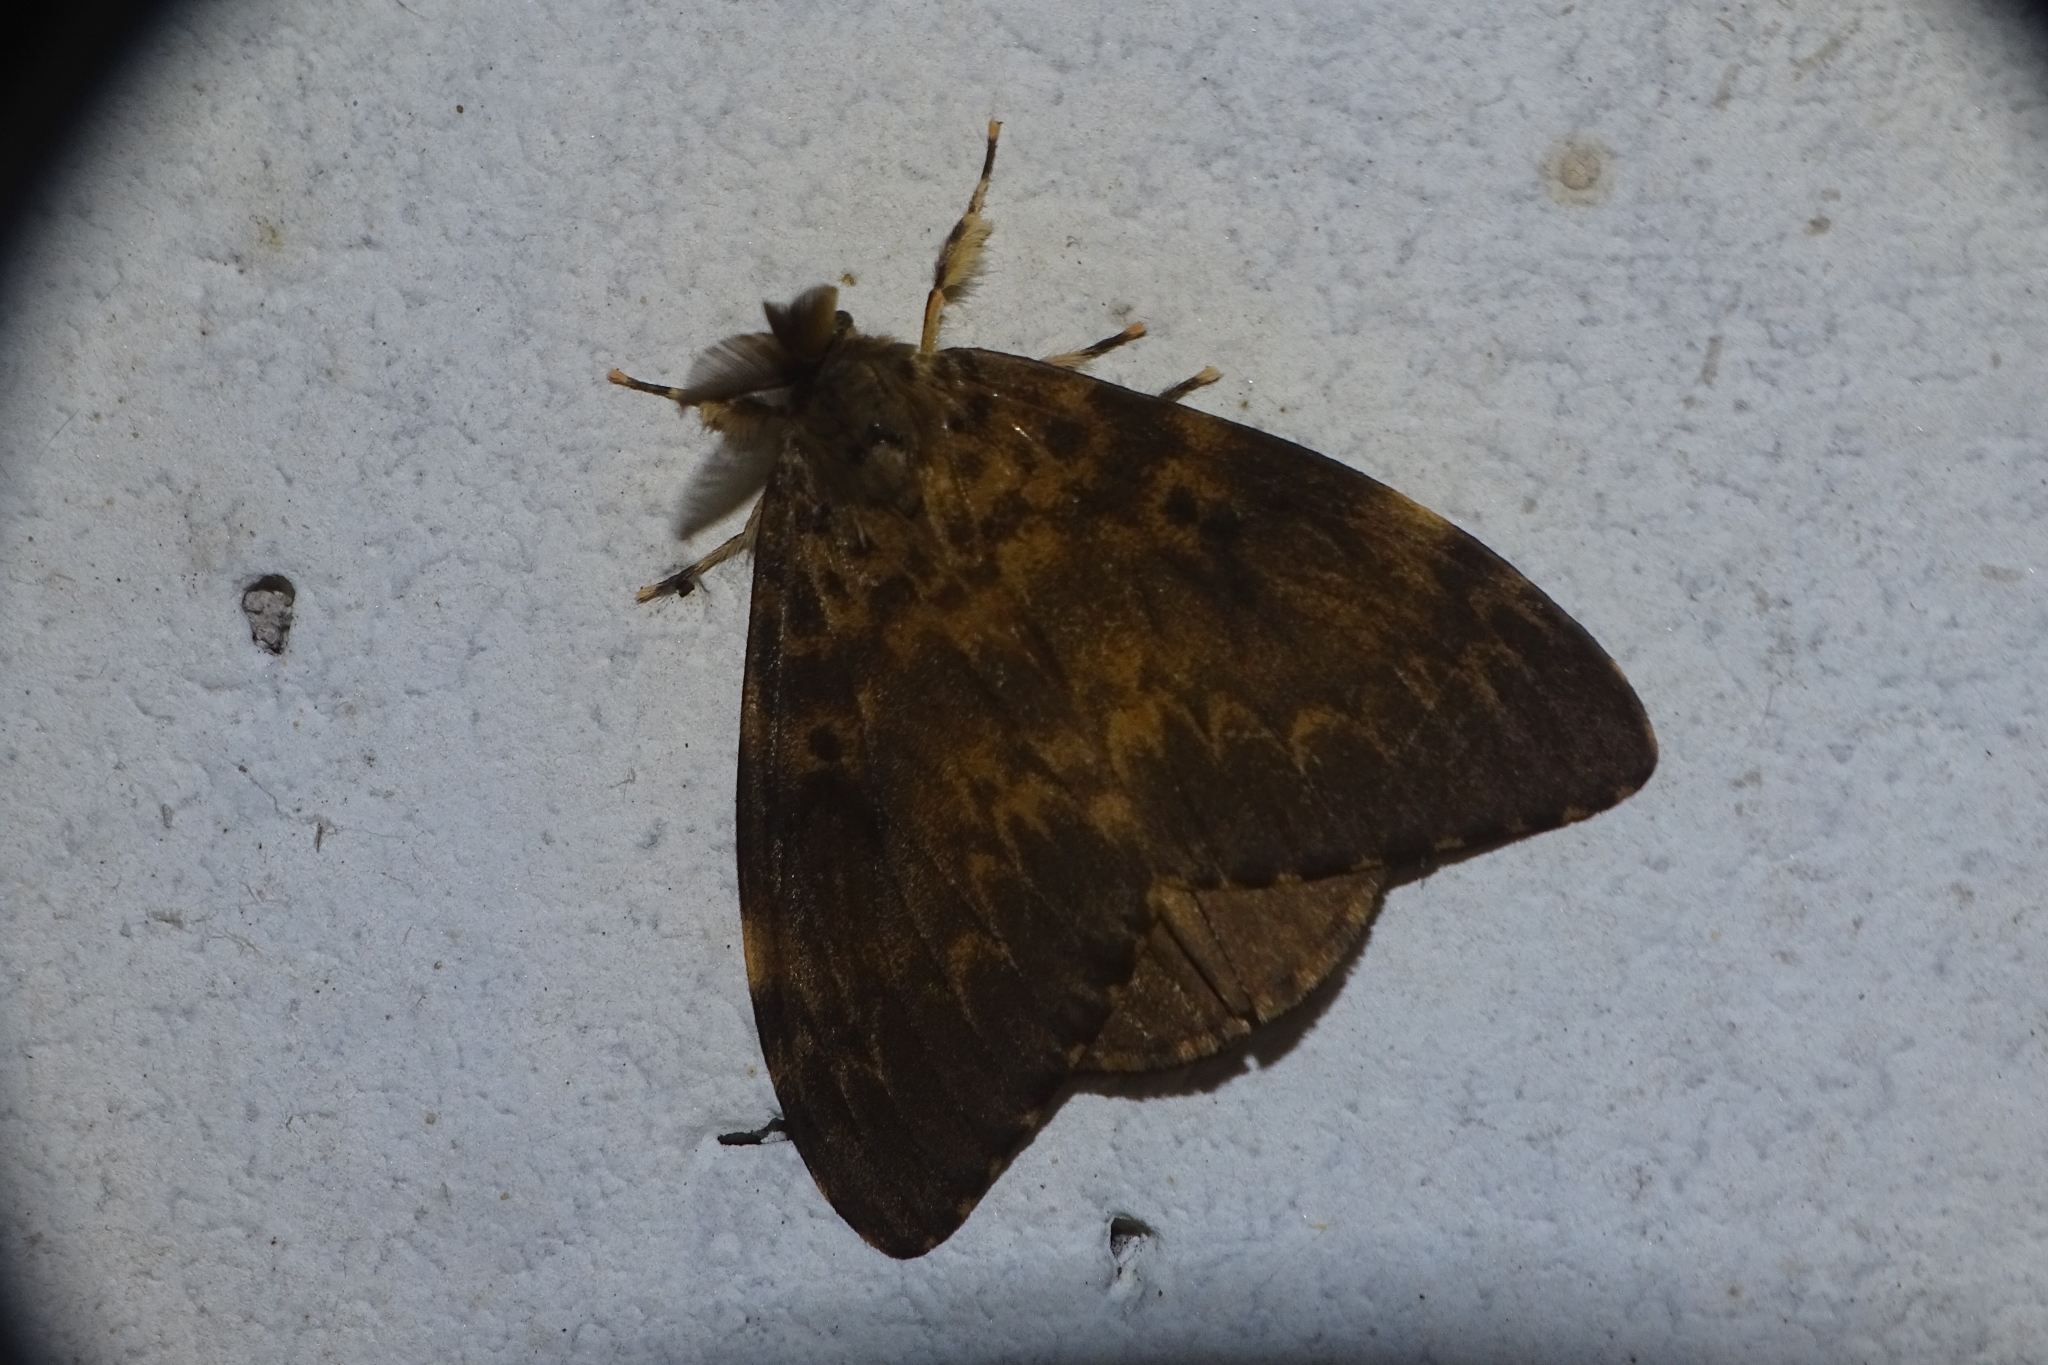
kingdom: Animalia
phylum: Arthropoda
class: Insecta
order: Lepidoptera
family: Erebidae
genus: Lymantria
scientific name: Lymantria ampla
